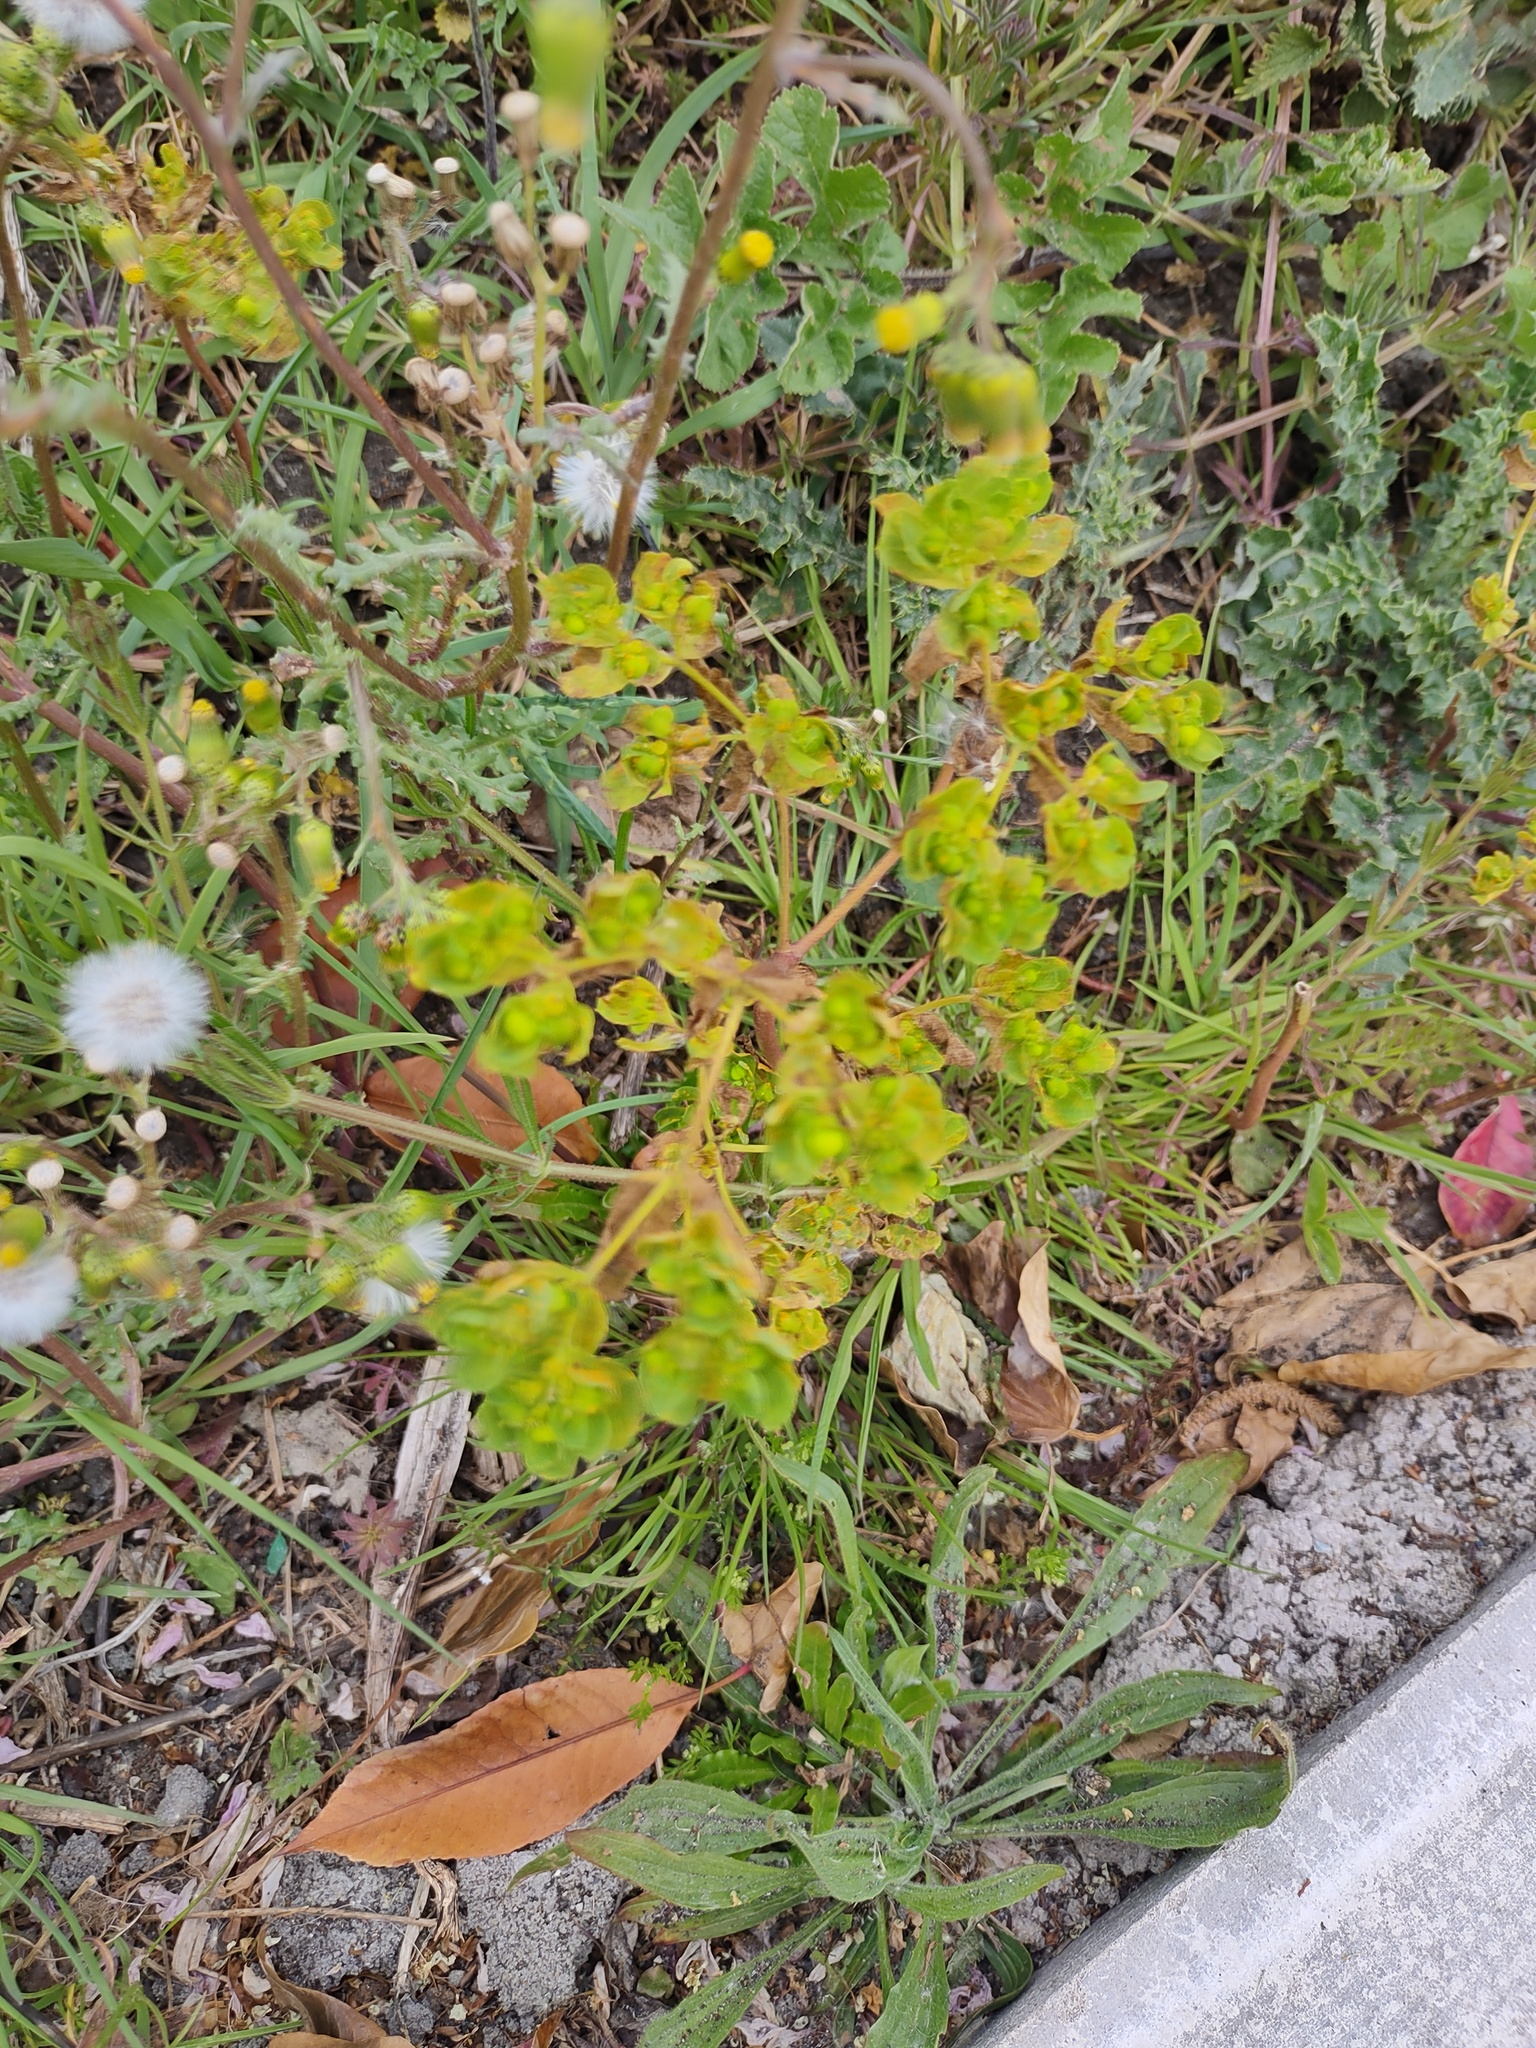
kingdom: Plantae
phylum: Tracheophyta
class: Magnoliopsida
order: Malpighiales
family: Euphorbiaceae
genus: Euphorbia
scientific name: Euphorbia helioscopia
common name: Sun spurge
